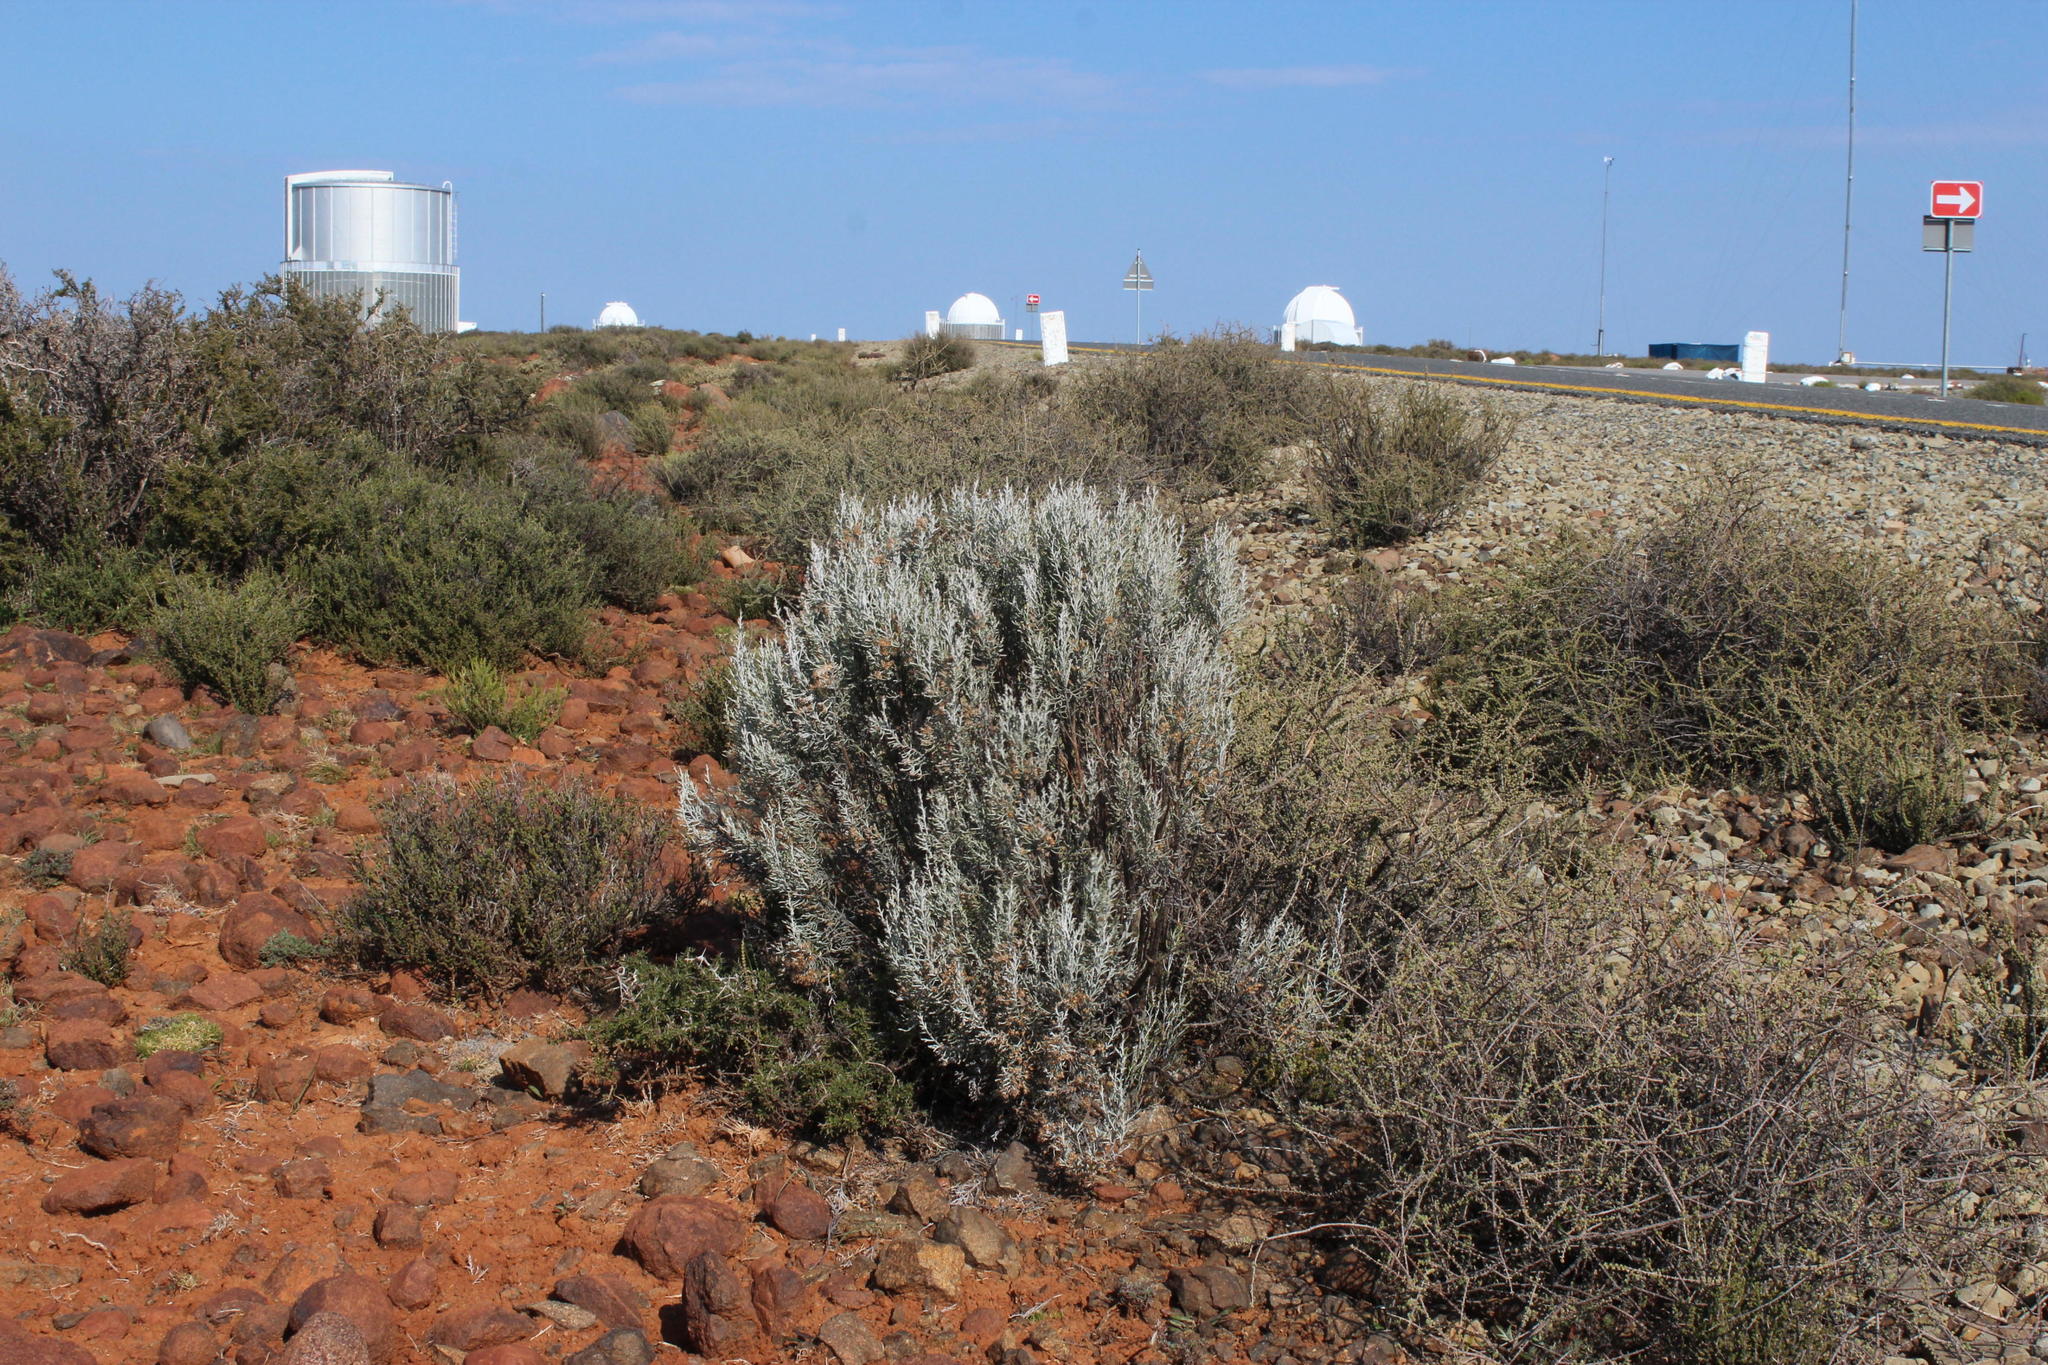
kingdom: Plantae
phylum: Tracheophyta
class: Magnoliopsida
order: Asterales
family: Asteraceae
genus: Dicerothamnus
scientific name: Dicerothamnus rhinocerotis
